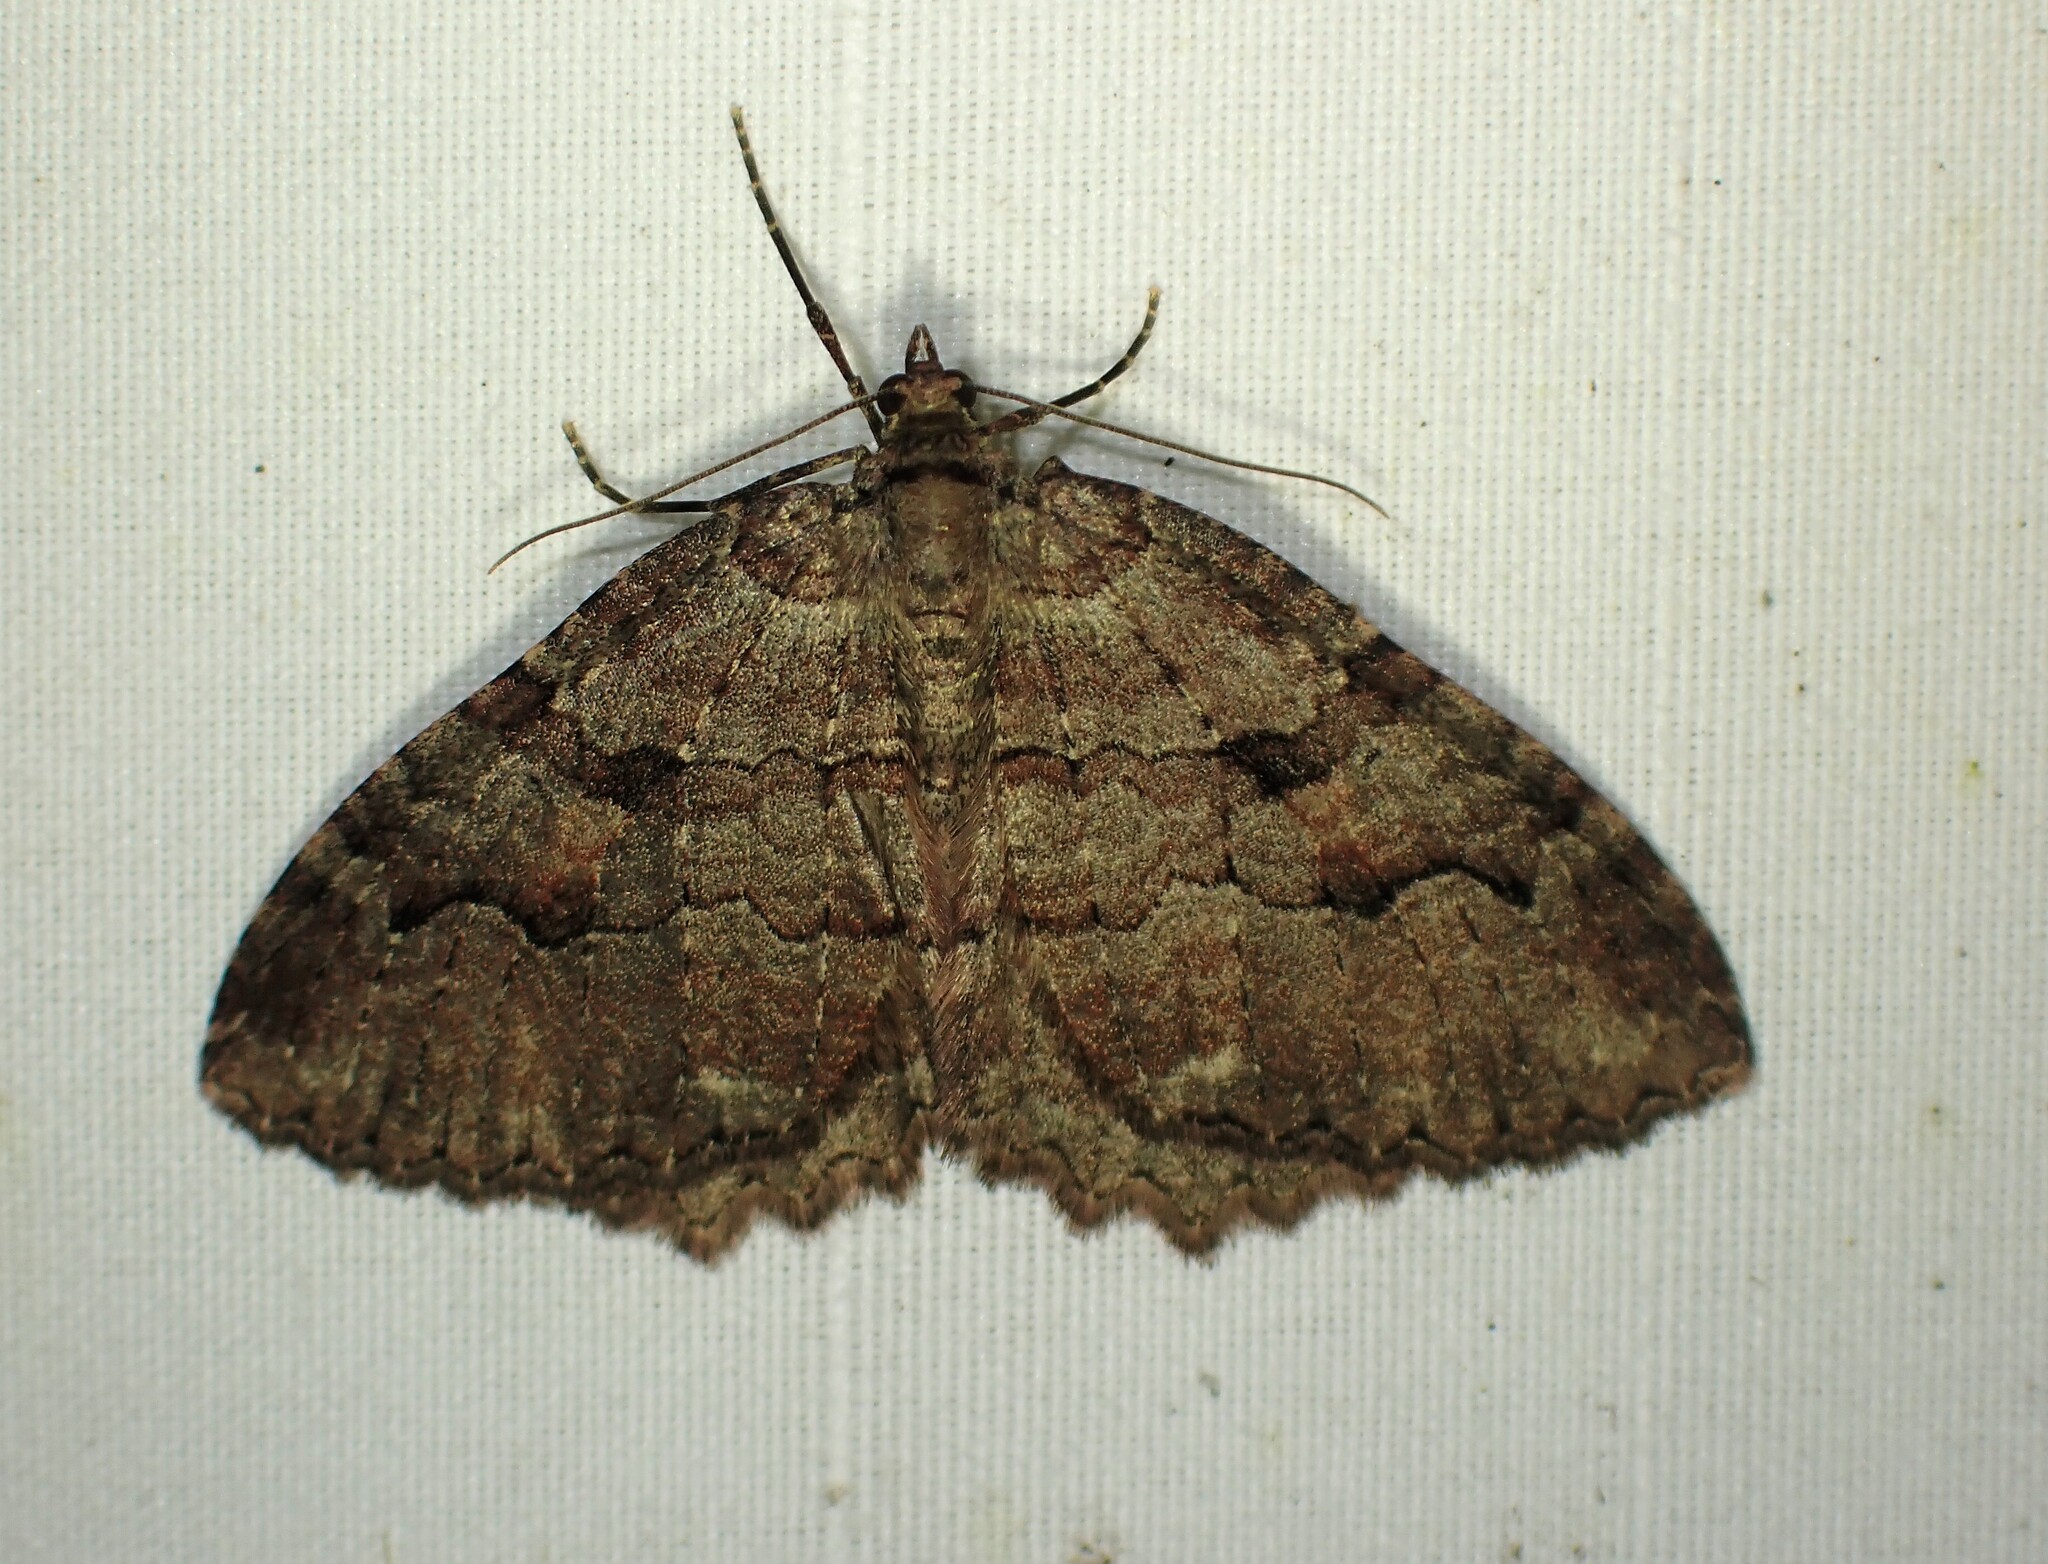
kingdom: Animalia
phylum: Arthropoda
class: Insecta
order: Lepidoptera
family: Geometridae
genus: Triphosa
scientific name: Triphosa haesitata
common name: Tissue moth
